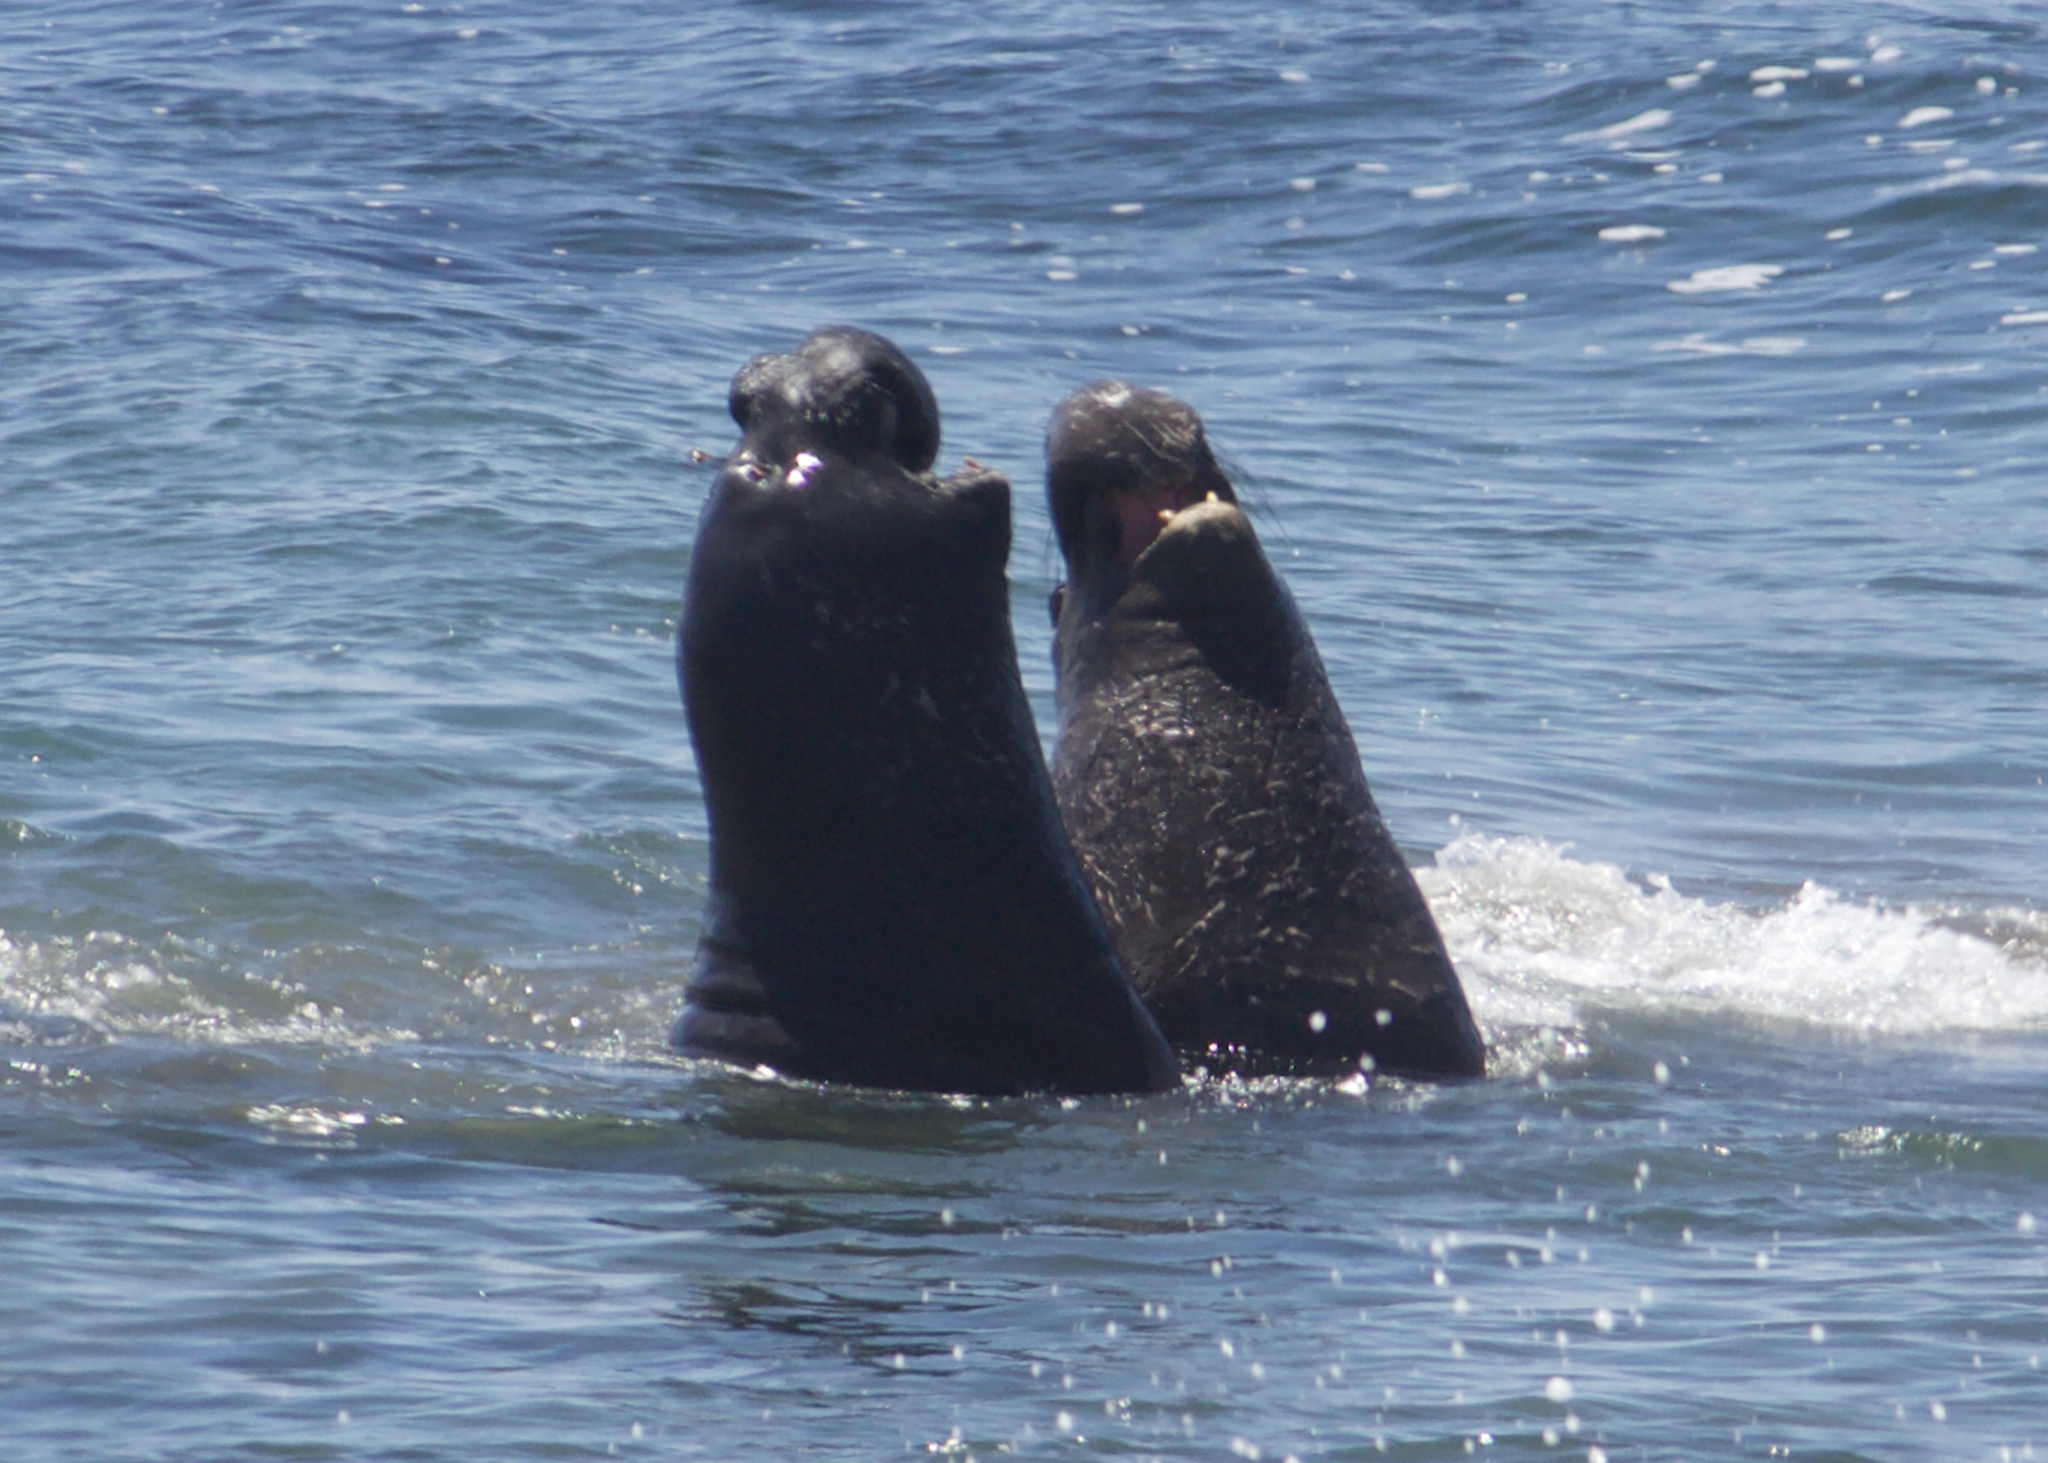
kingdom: Animalia
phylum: Chordata
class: Mammalia
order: Carnivora
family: Phocidae
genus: Mirounga
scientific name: Mirounga angustirostris
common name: Northern elephant seal
